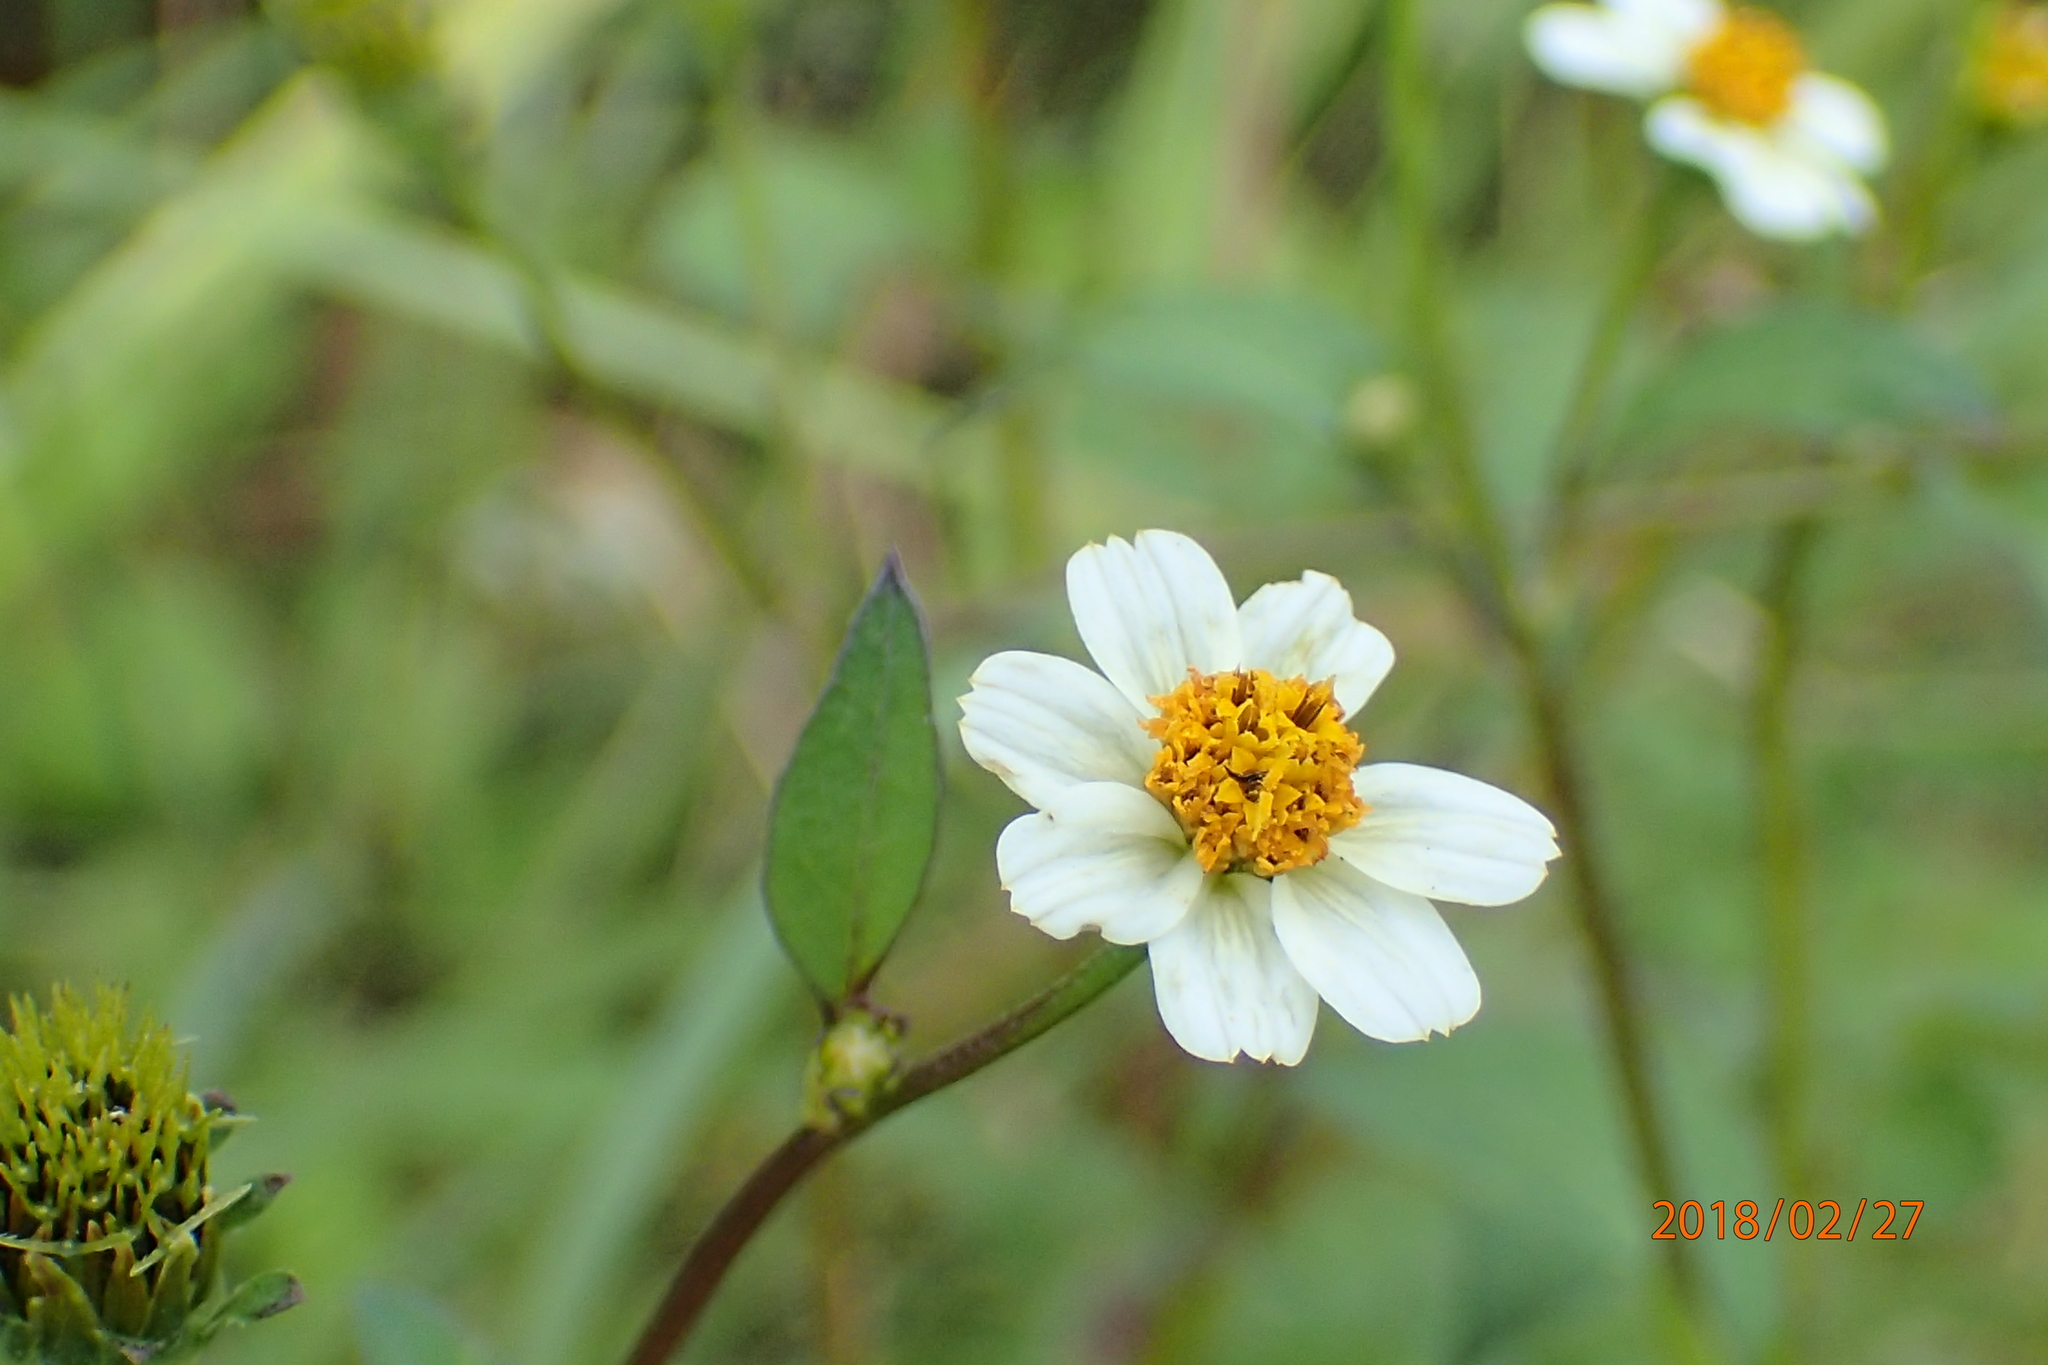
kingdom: Plantae
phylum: Tracheophyta
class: Magnoliopsida
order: Asterales
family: Asteraceae
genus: Bidens
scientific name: Bidens pilosa
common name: Black-jack
